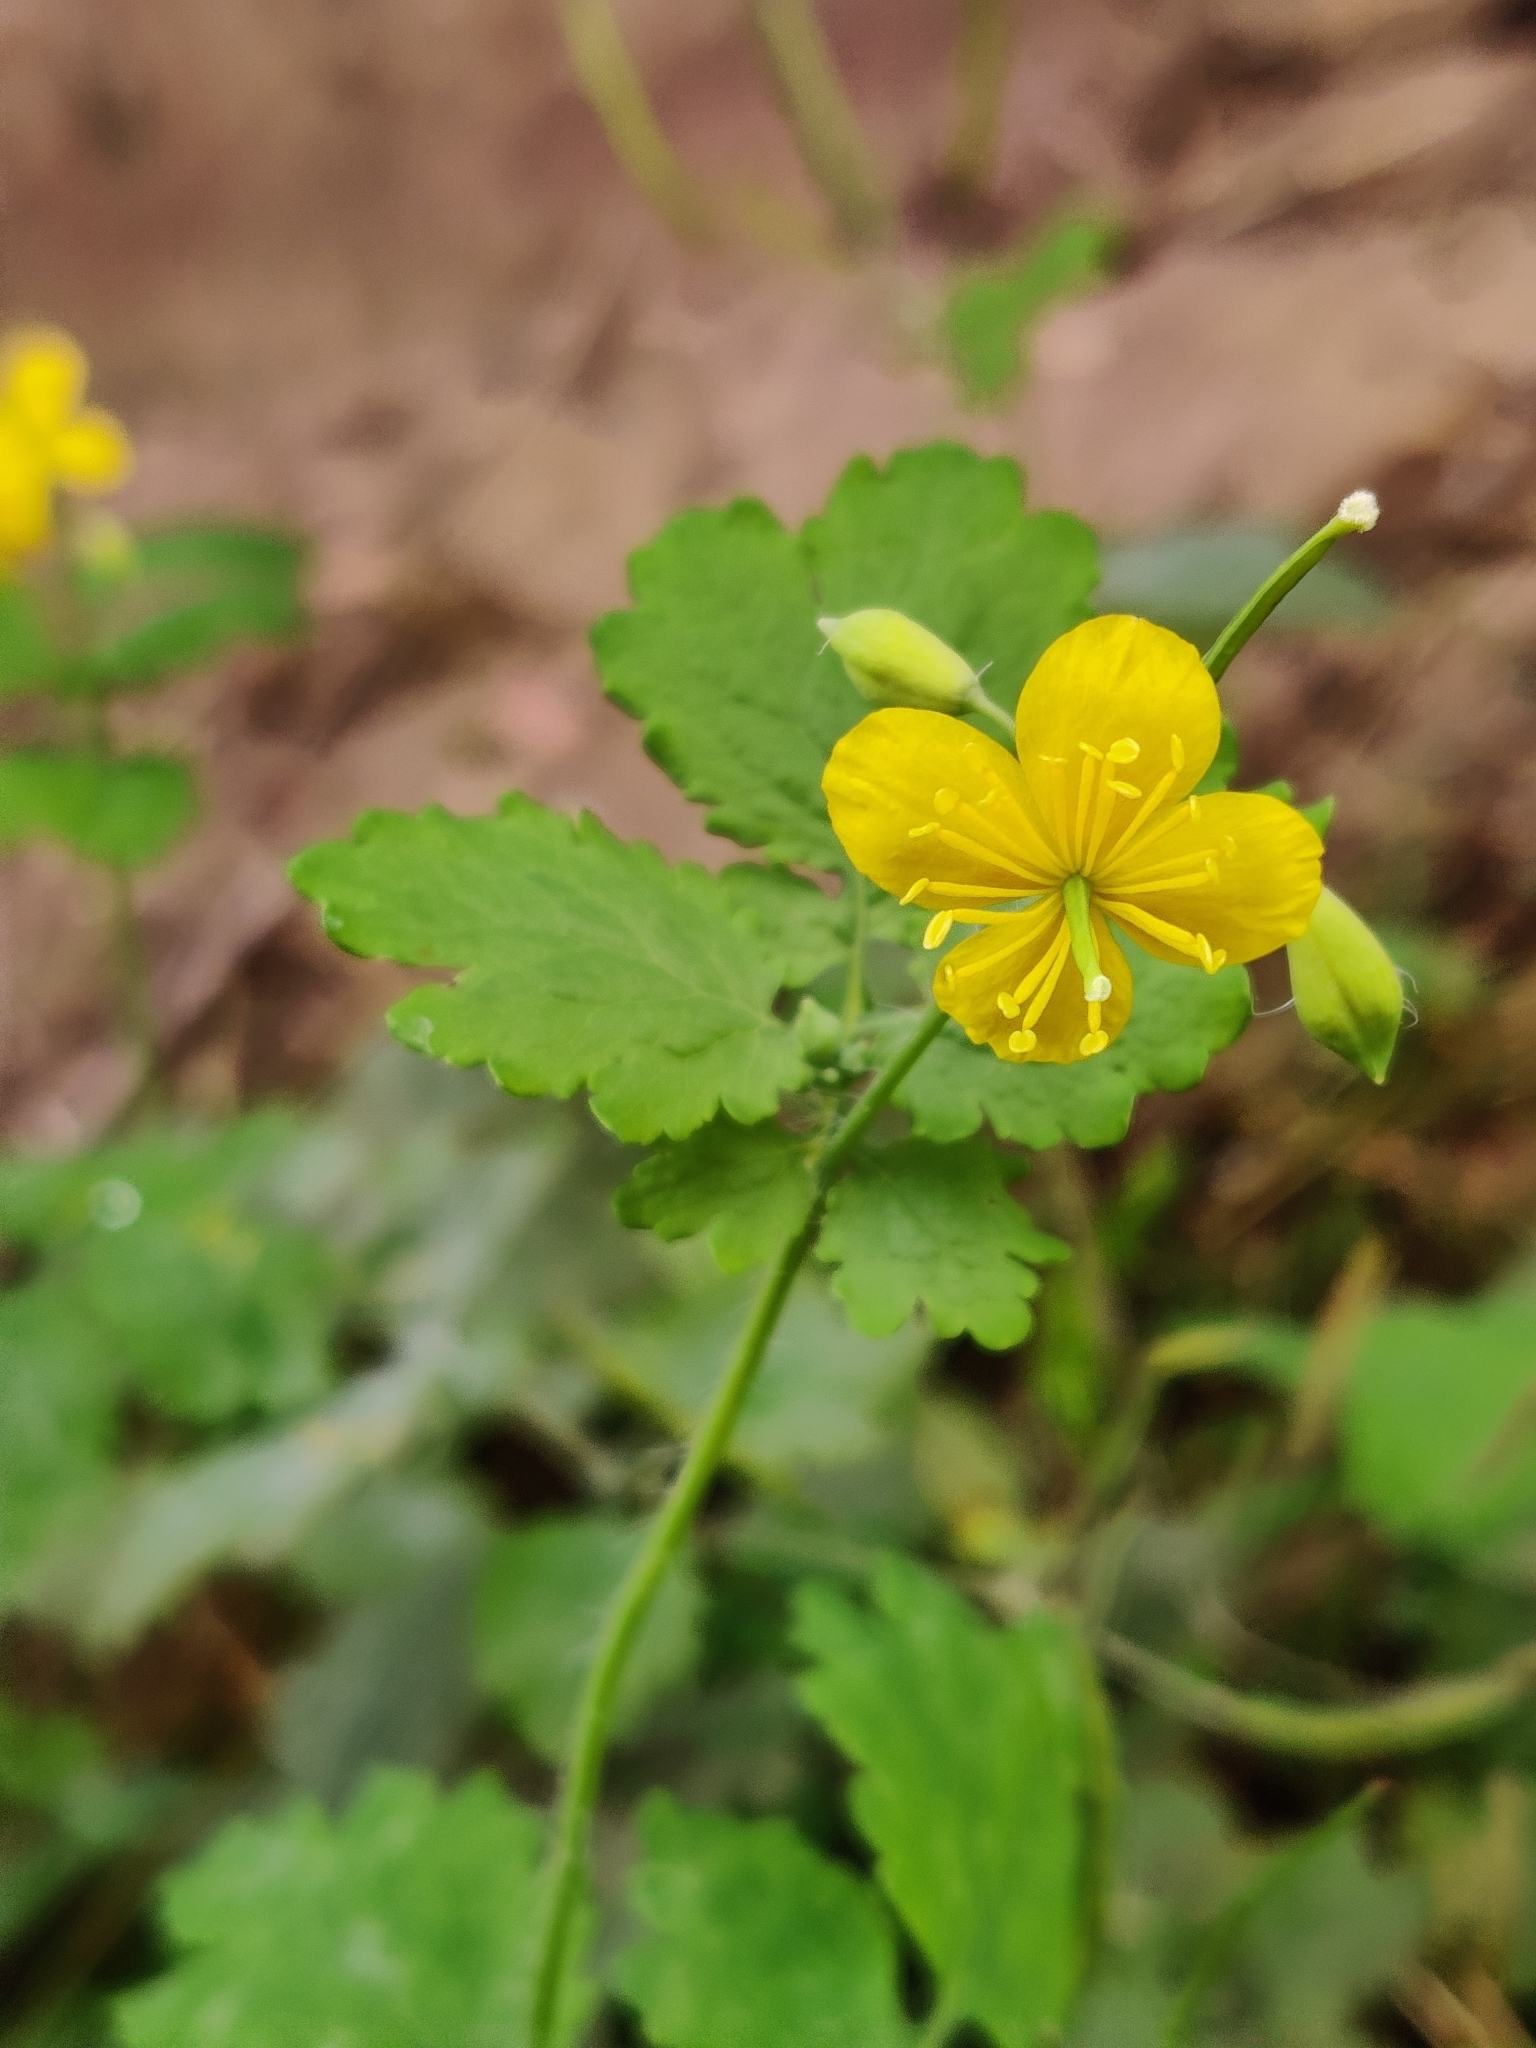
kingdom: Plantae
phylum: Tracheophyta
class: Magnoliopsida
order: Ranunculales
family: Papaveraceae
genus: Chelidonium
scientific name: Chelidonium majus
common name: Greater celandine
